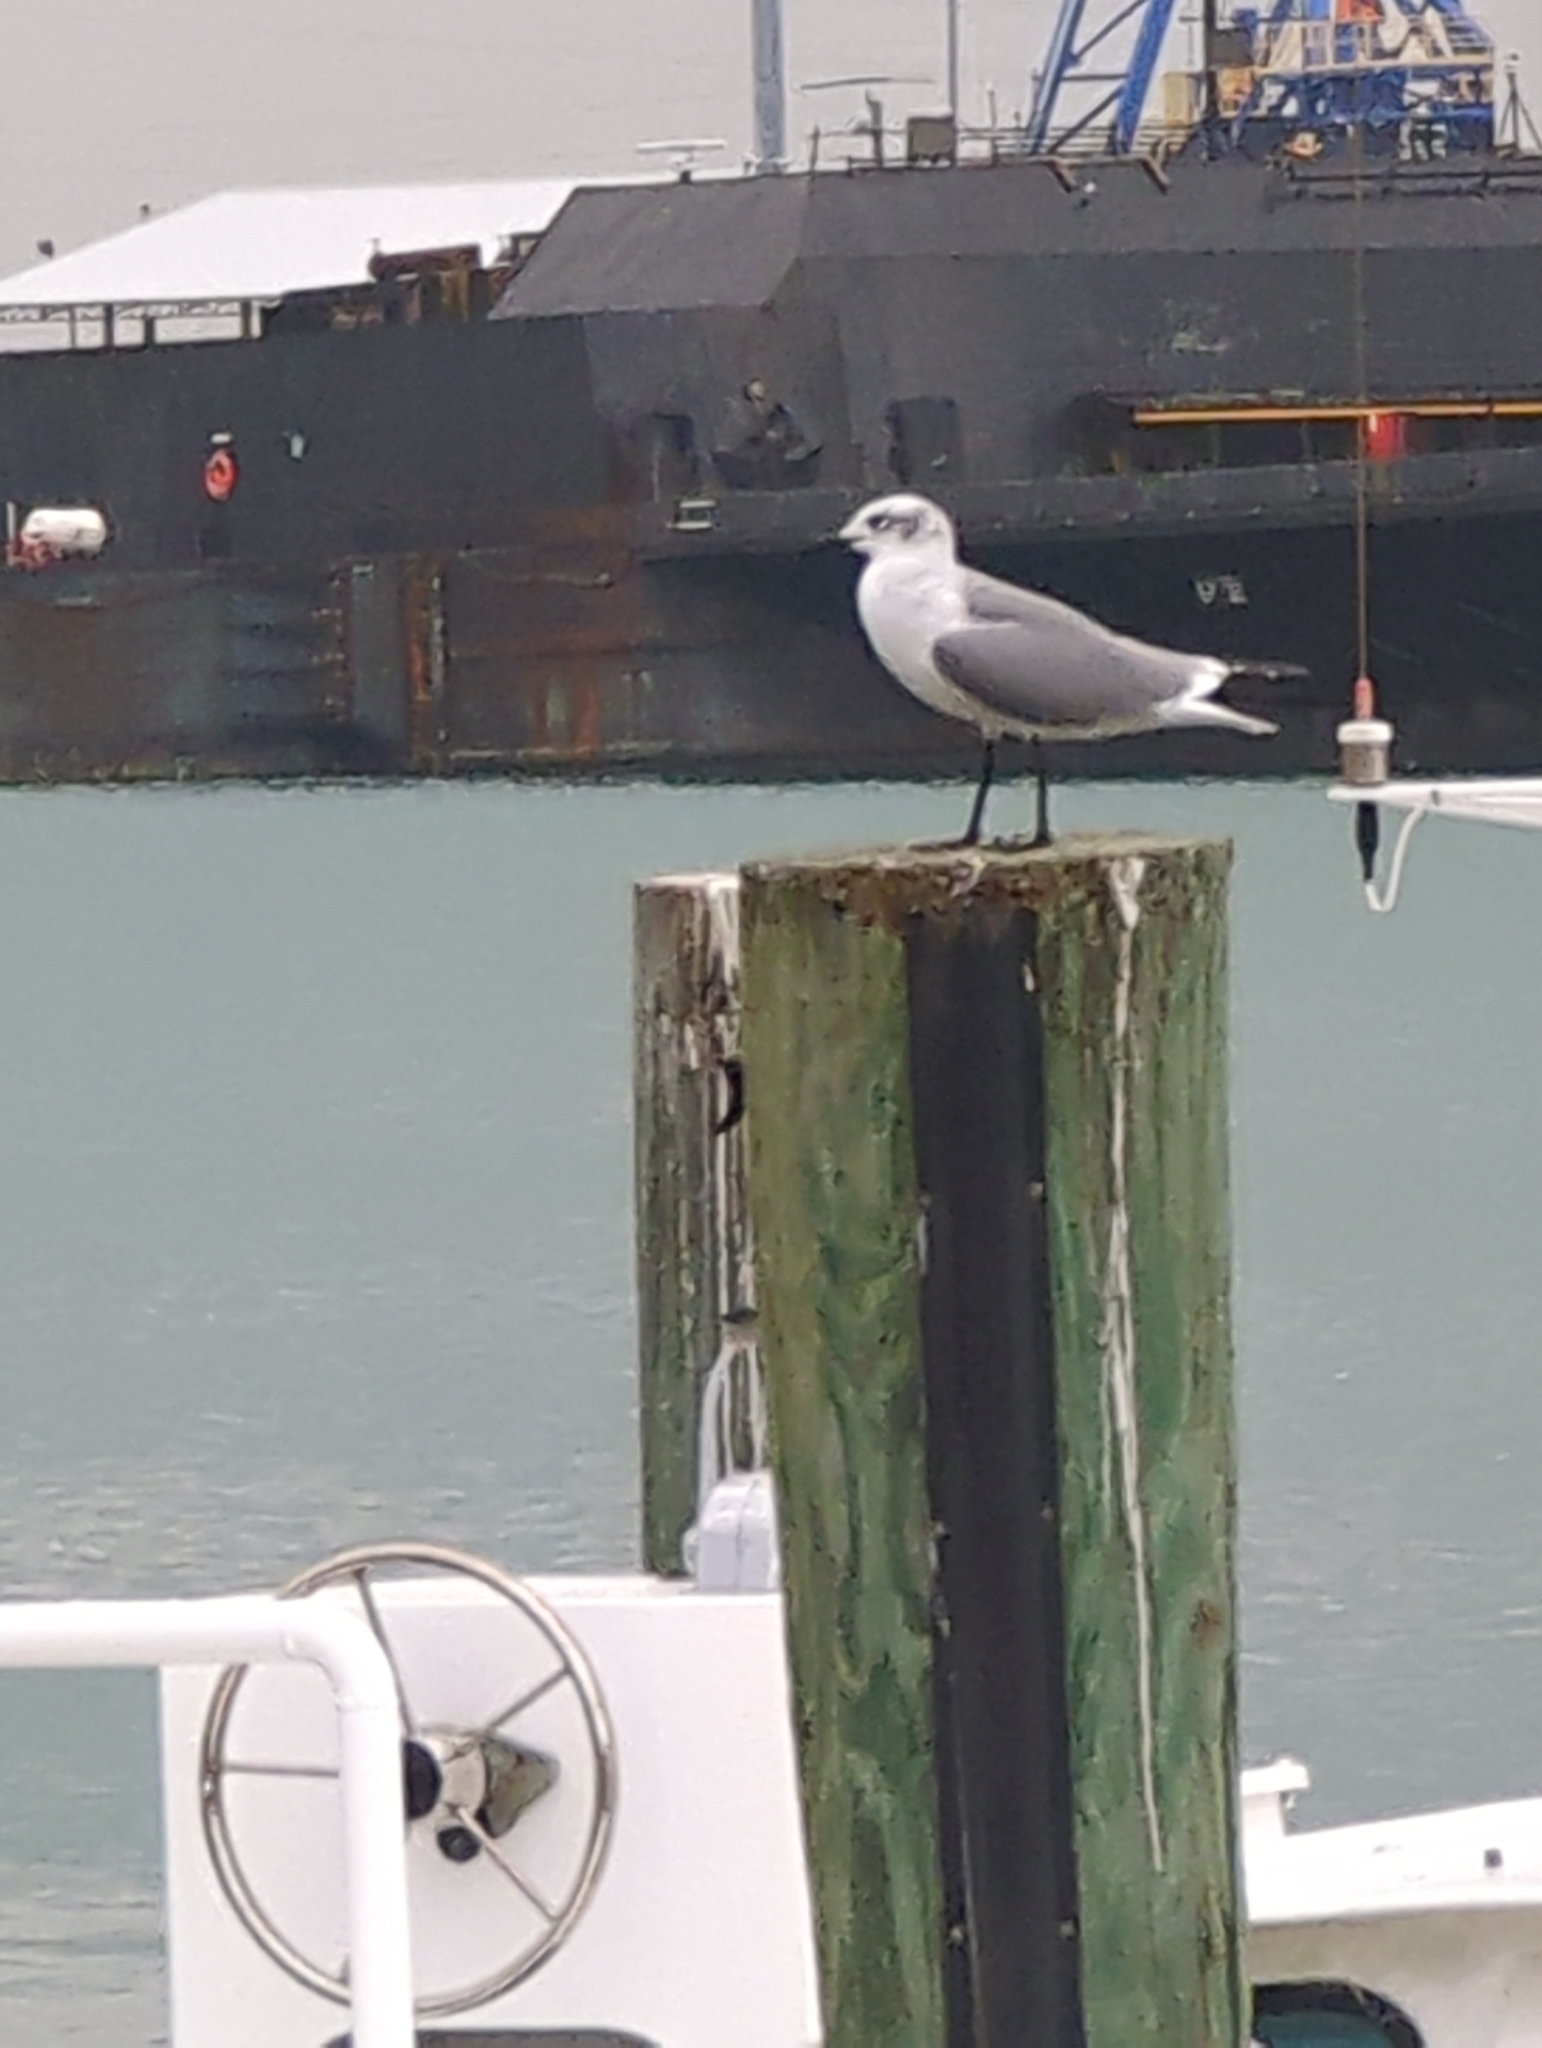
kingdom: Animalia
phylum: Chordata
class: Aves
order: Charadriiformes
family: Laridae
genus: Leucophaeus
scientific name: Leucophaeus atricilla
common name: Laughing gull
